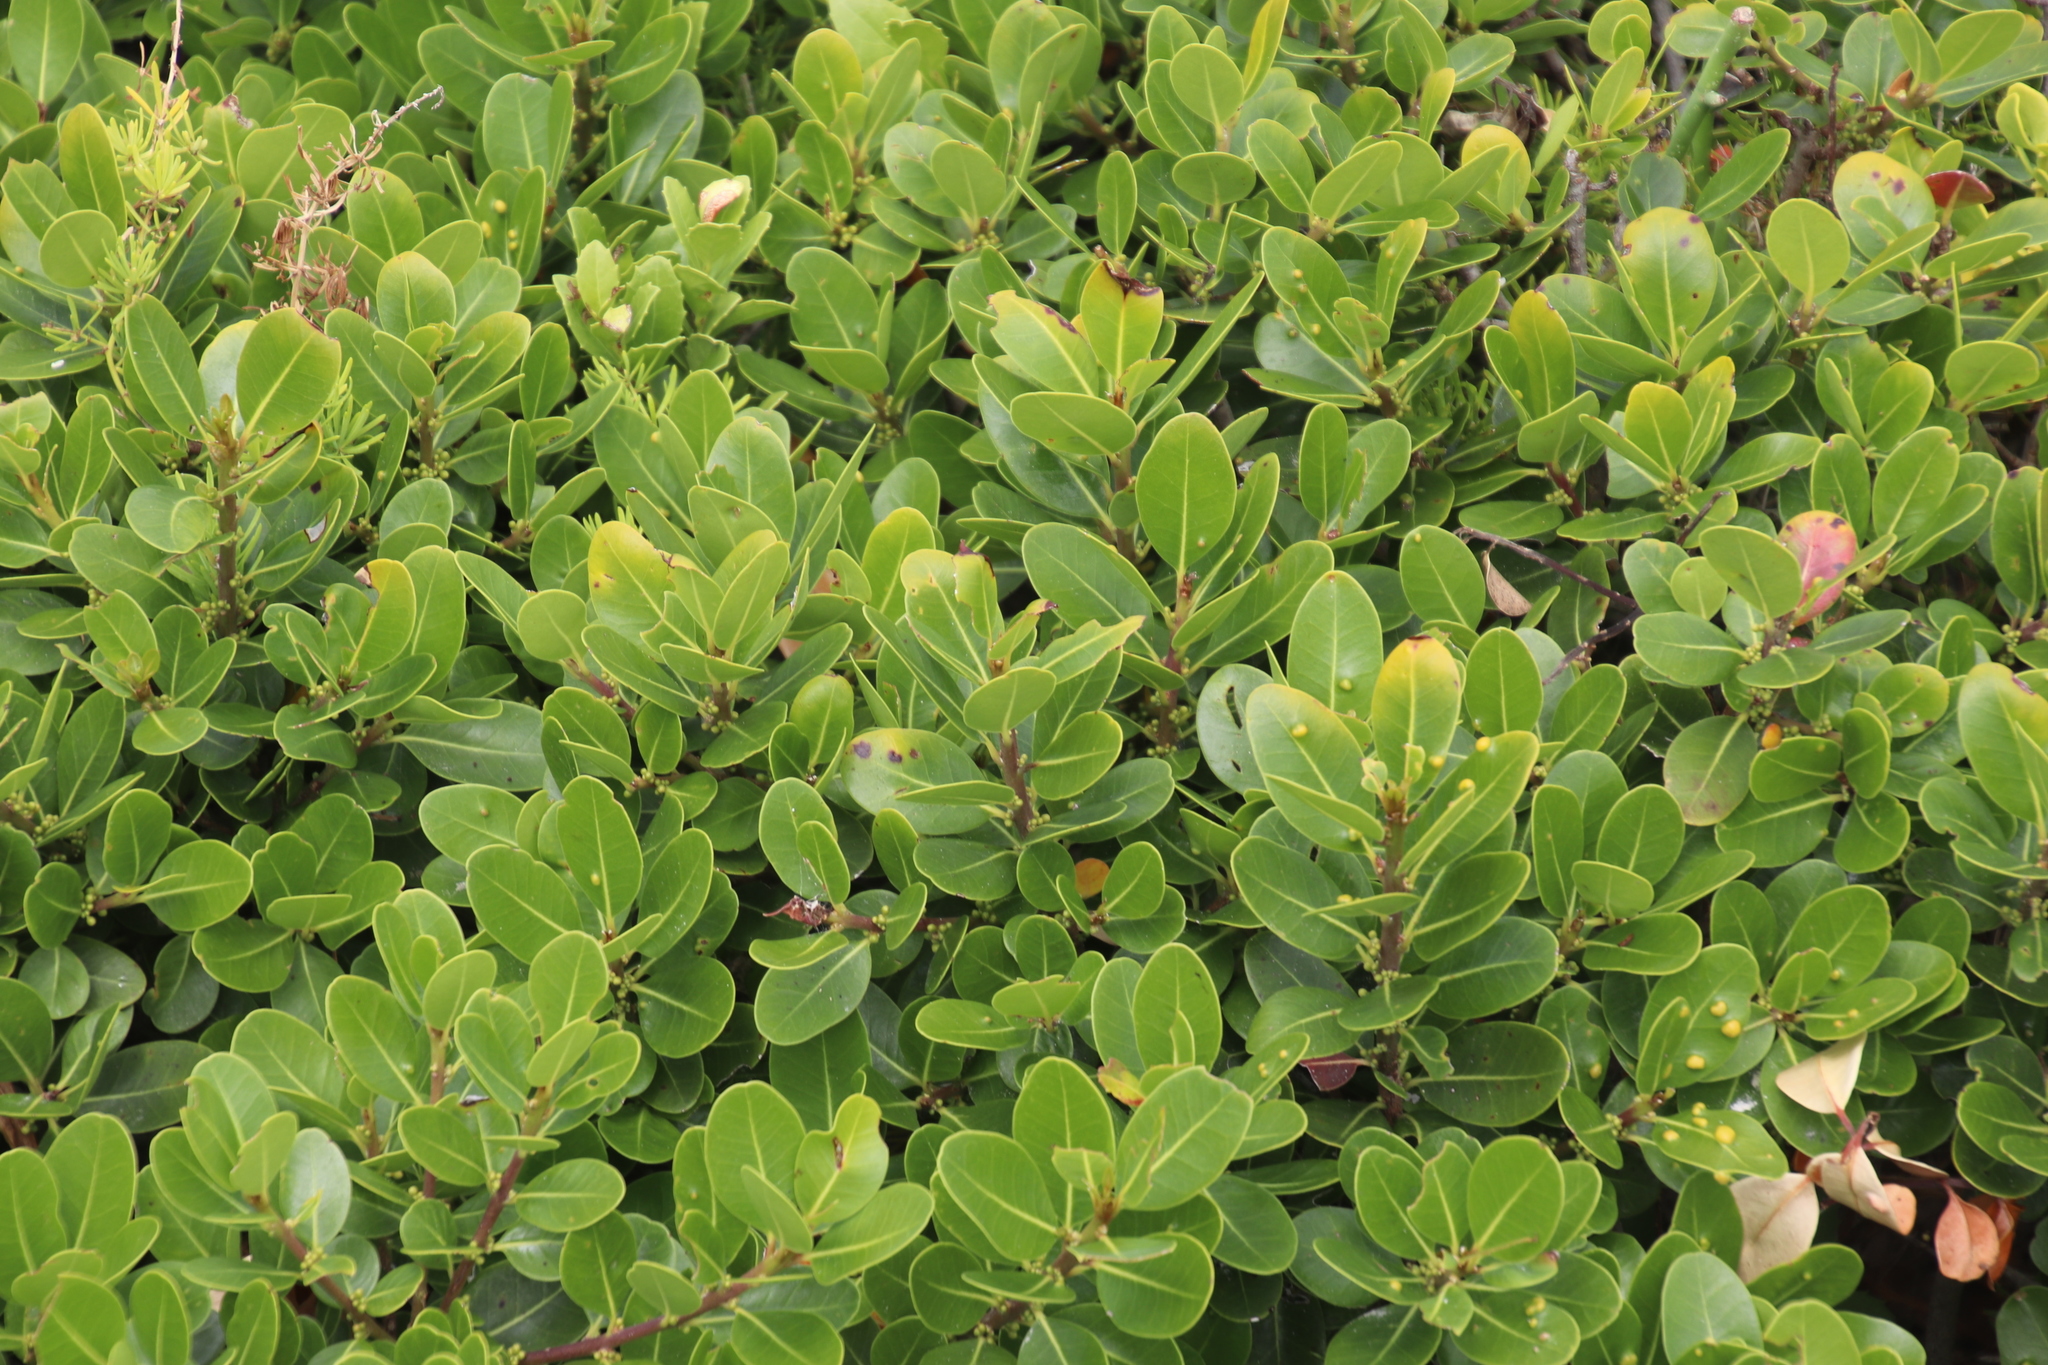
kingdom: Plantae
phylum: Tracheophyta
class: Magnoliopsida
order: Ericales
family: Sapotaceae
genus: Sideroxylon
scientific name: Sideroxylon inerme
